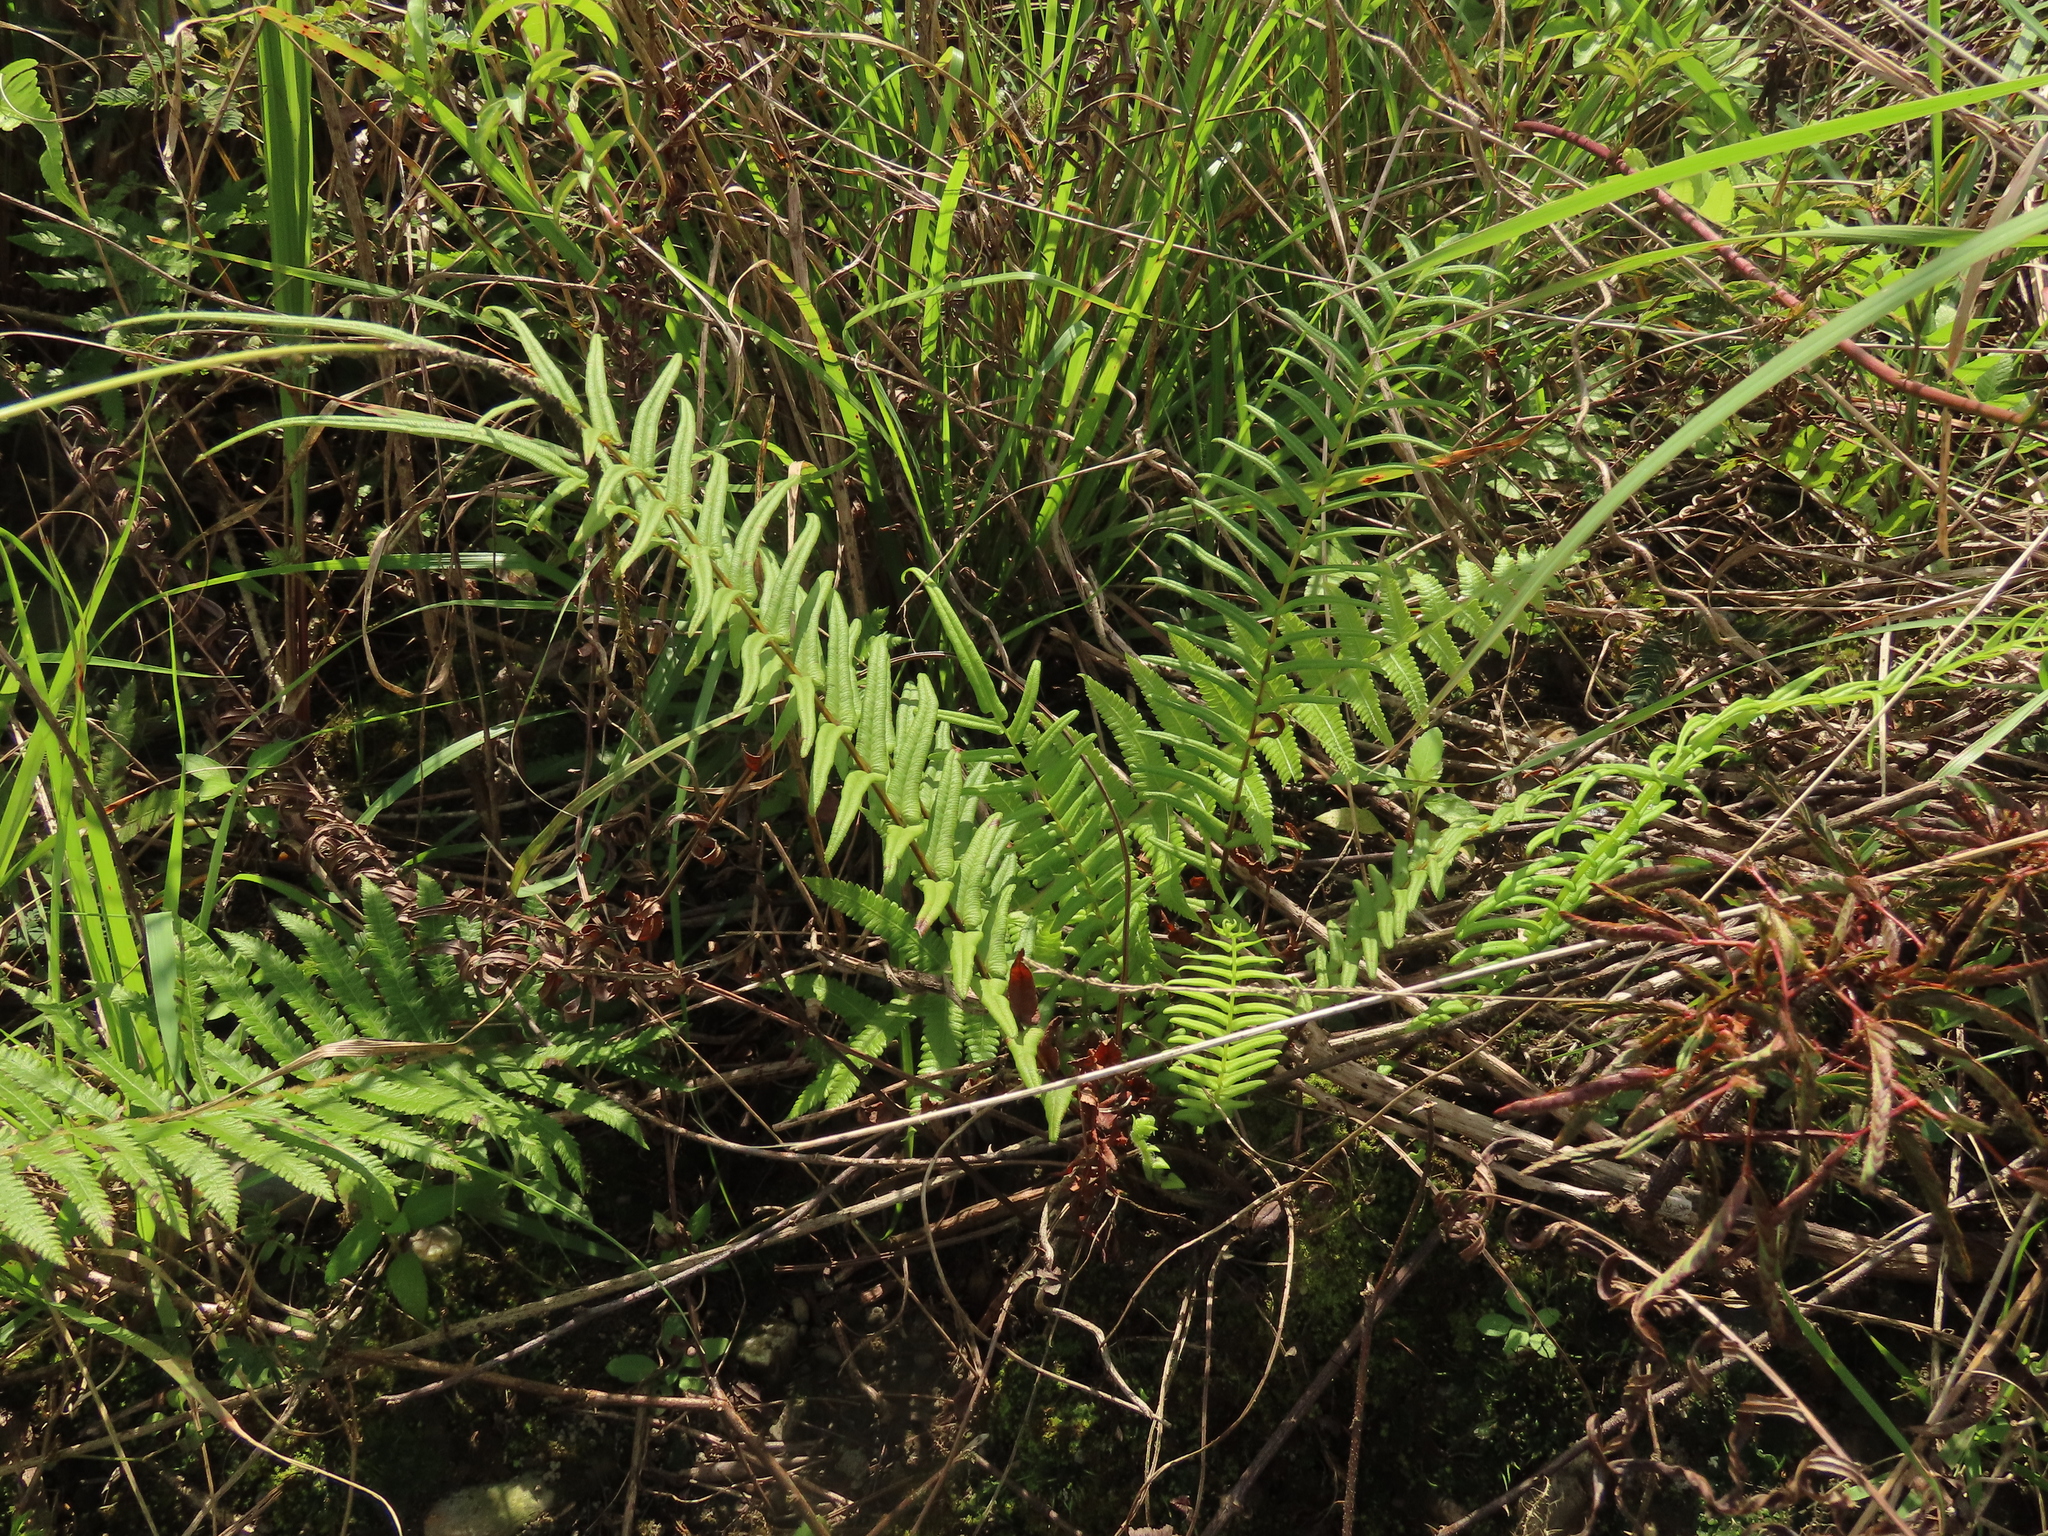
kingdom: Plantae
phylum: Tracheophyta
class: Polypodiopsida
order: Polypodiales
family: Pteridaceae
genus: Pteris
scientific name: Pteris vittata
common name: Ladder brake
